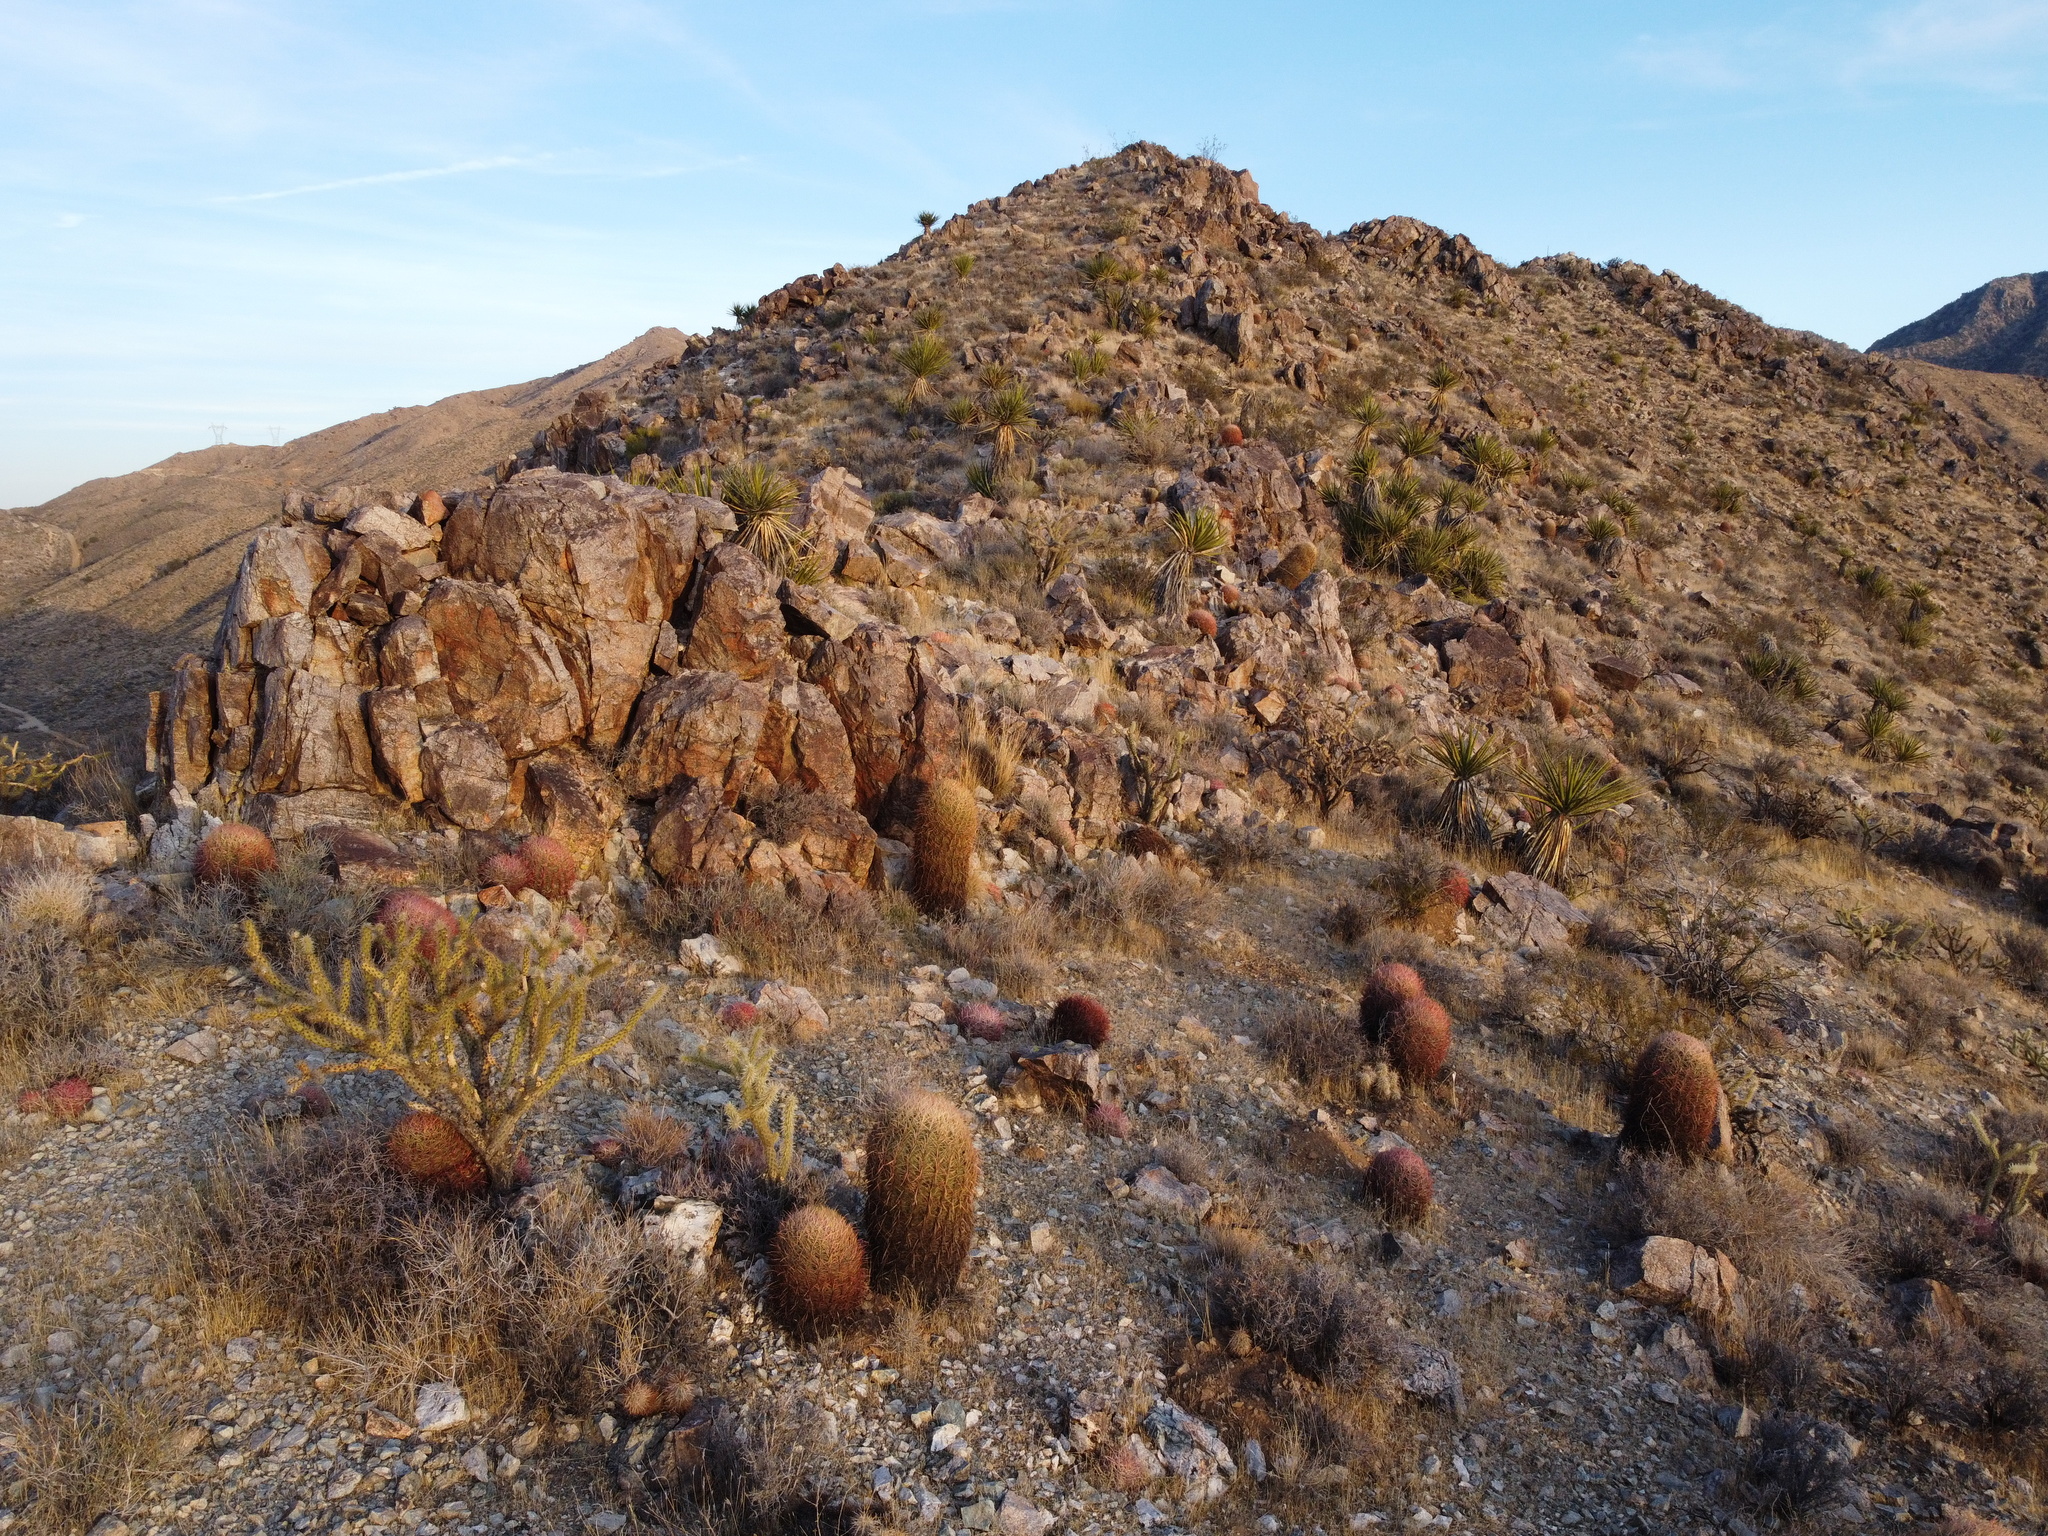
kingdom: Plantae
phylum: Tracheophyta
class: Magnoliopsida
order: Caryophyllales
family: Cactaceae
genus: Ferocactus
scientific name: Ferocactus cylindraceus
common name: California barrel cactus
